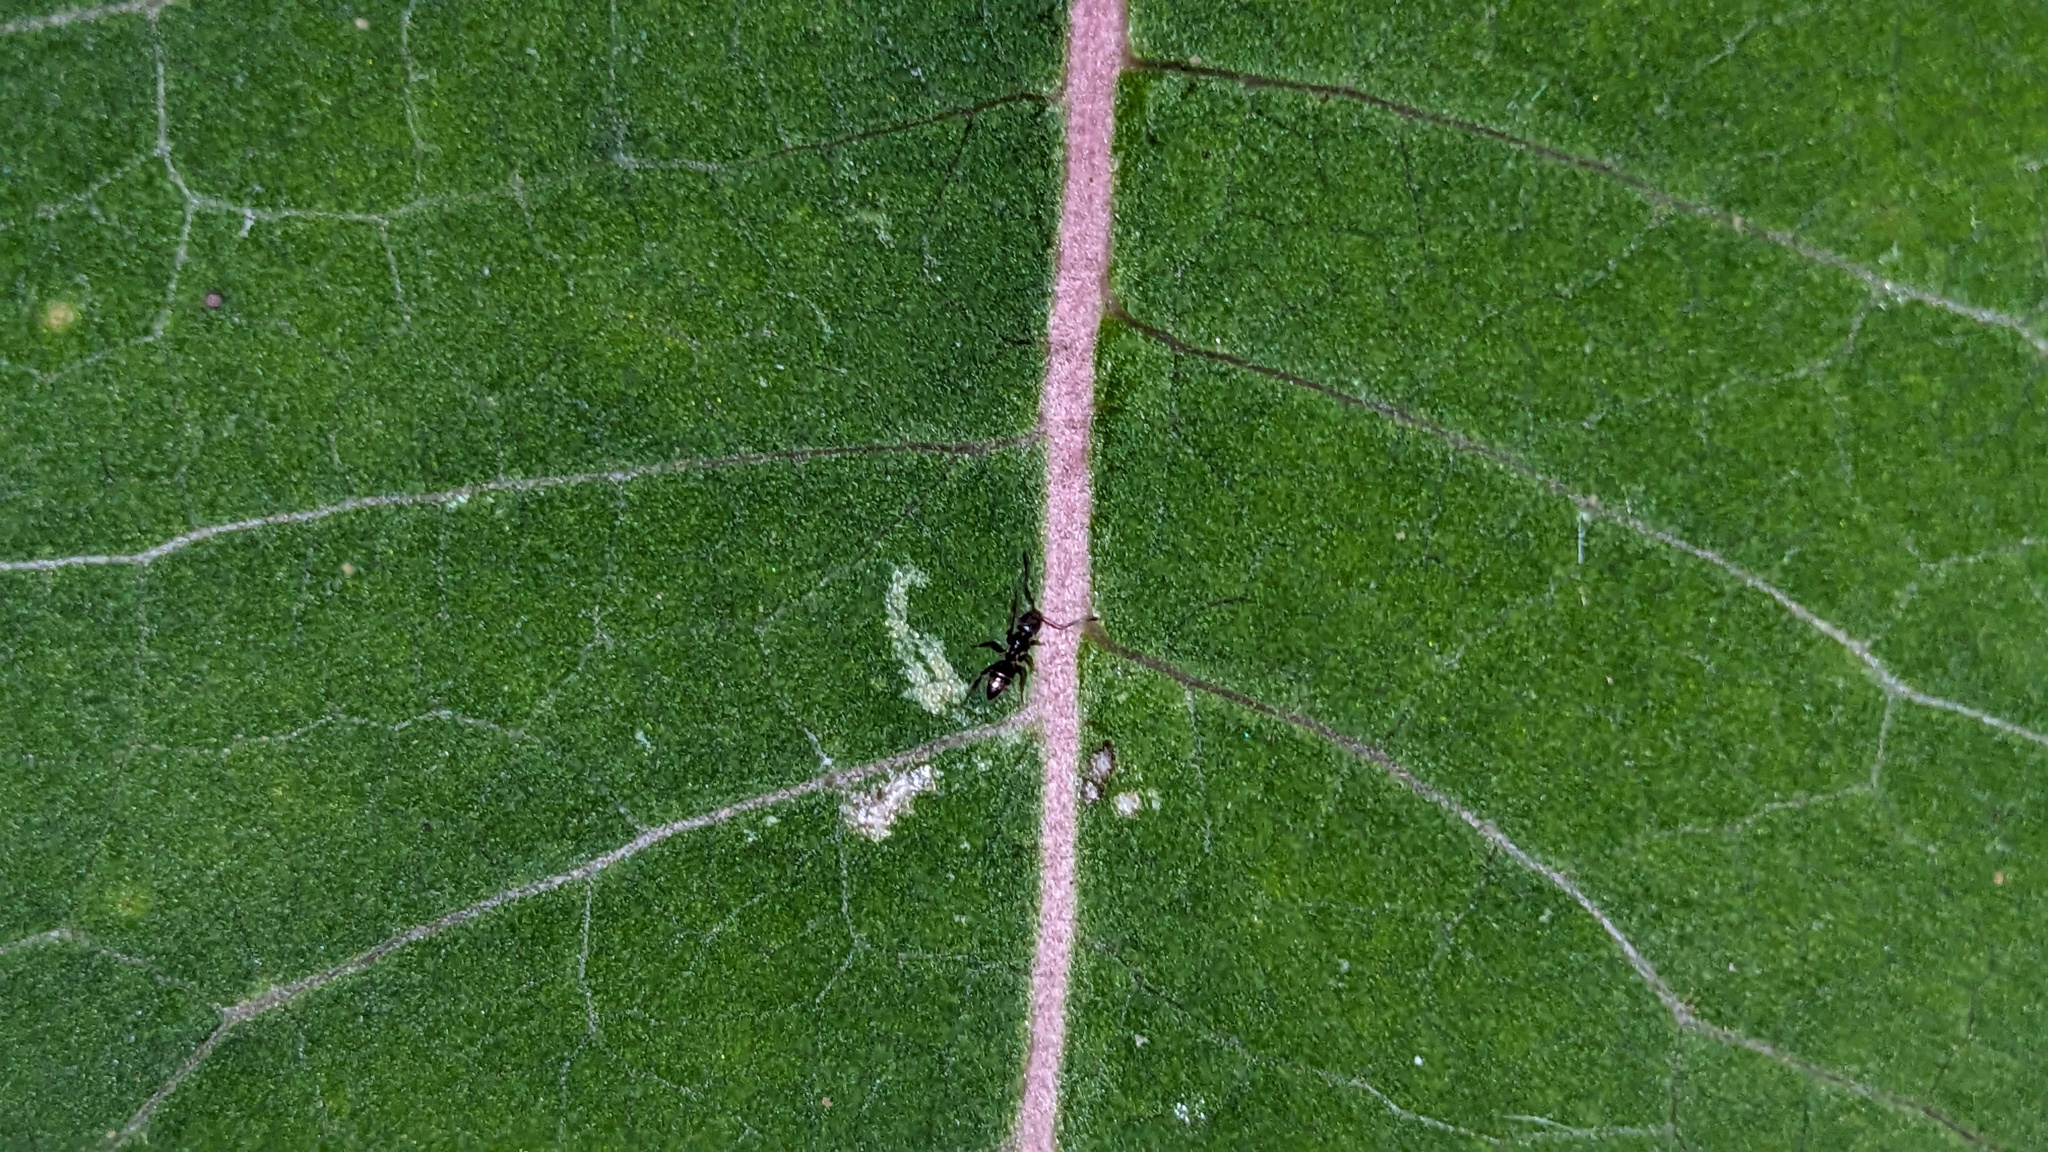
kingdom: Animalia
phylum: Arthropoda
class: Insecta
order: Hymenoptera
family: Formicidae
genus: Tapinoma
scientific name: Tapinoma sessile
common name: Odorous house ant
